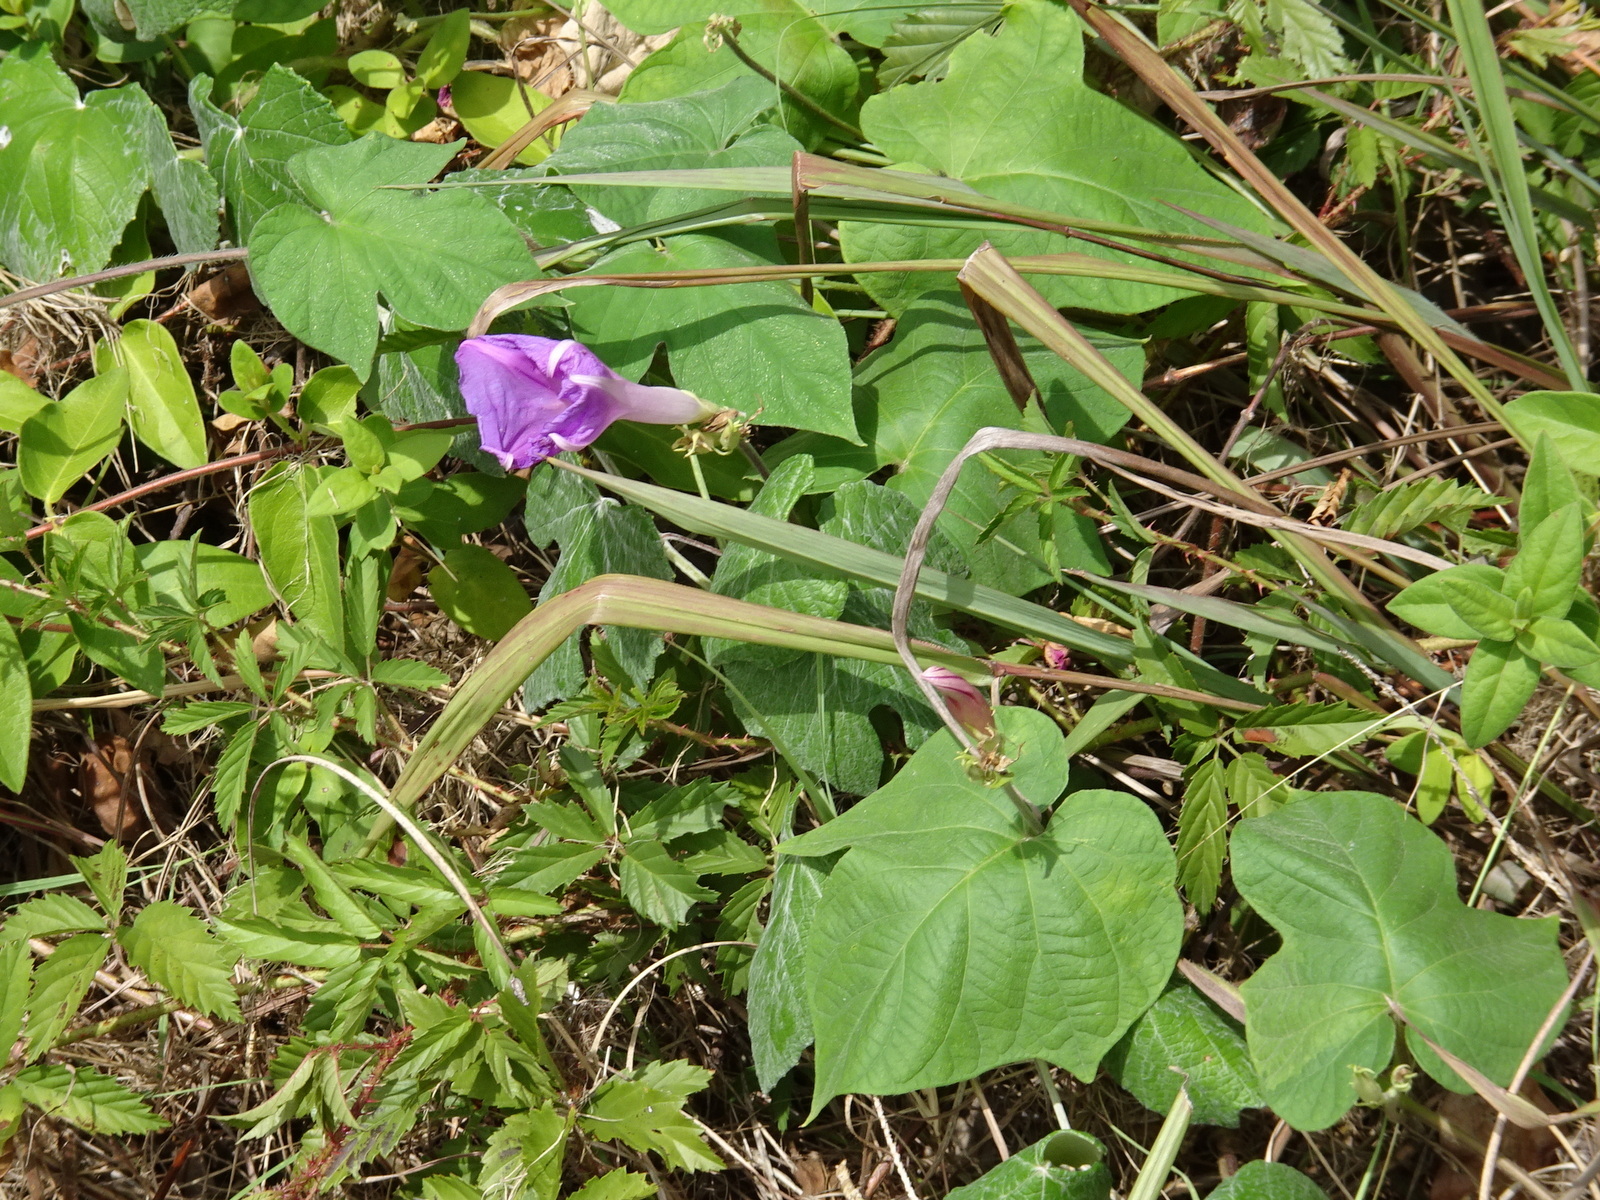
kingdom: Plantae
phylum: Tracheophyta
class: Magnoliopsida
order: Solanales
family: Convolvulaceae
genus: Ipomoea
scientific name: Ipomoea cordatotriloba
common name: Cotton morning glory
